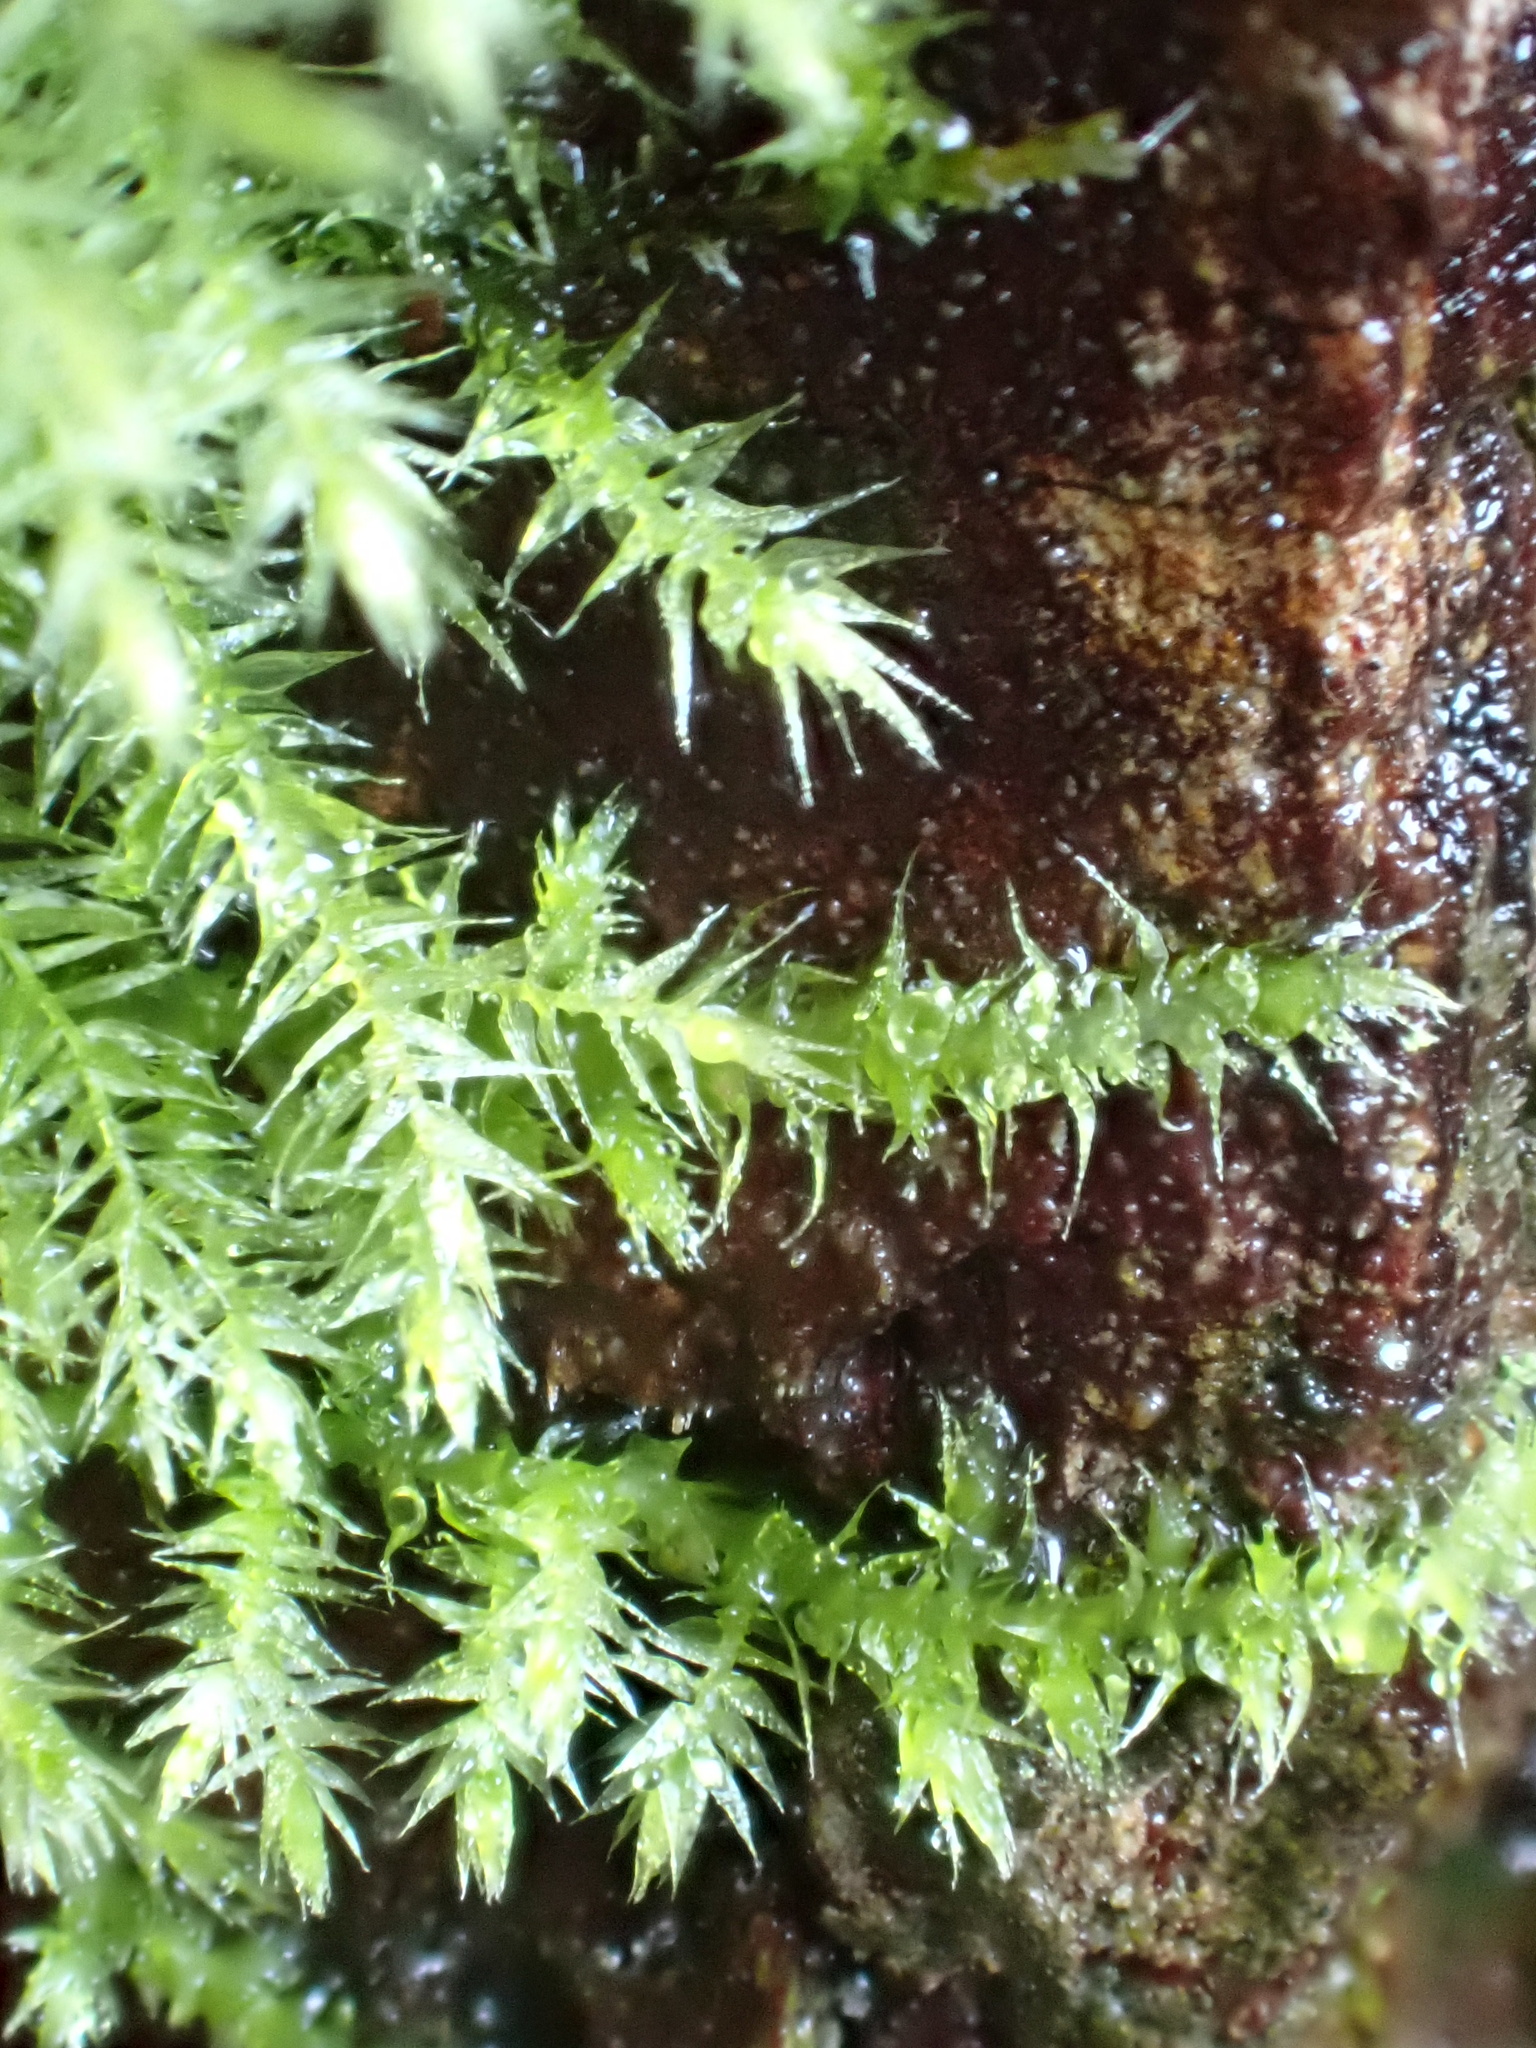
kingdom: Plantae
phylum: Bryophyta
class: Bryopsida
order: Hypnales
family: Brachytheciaceae
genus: Kindbergia
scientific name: Kindbergia praelonga
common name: Slender beaked moss
